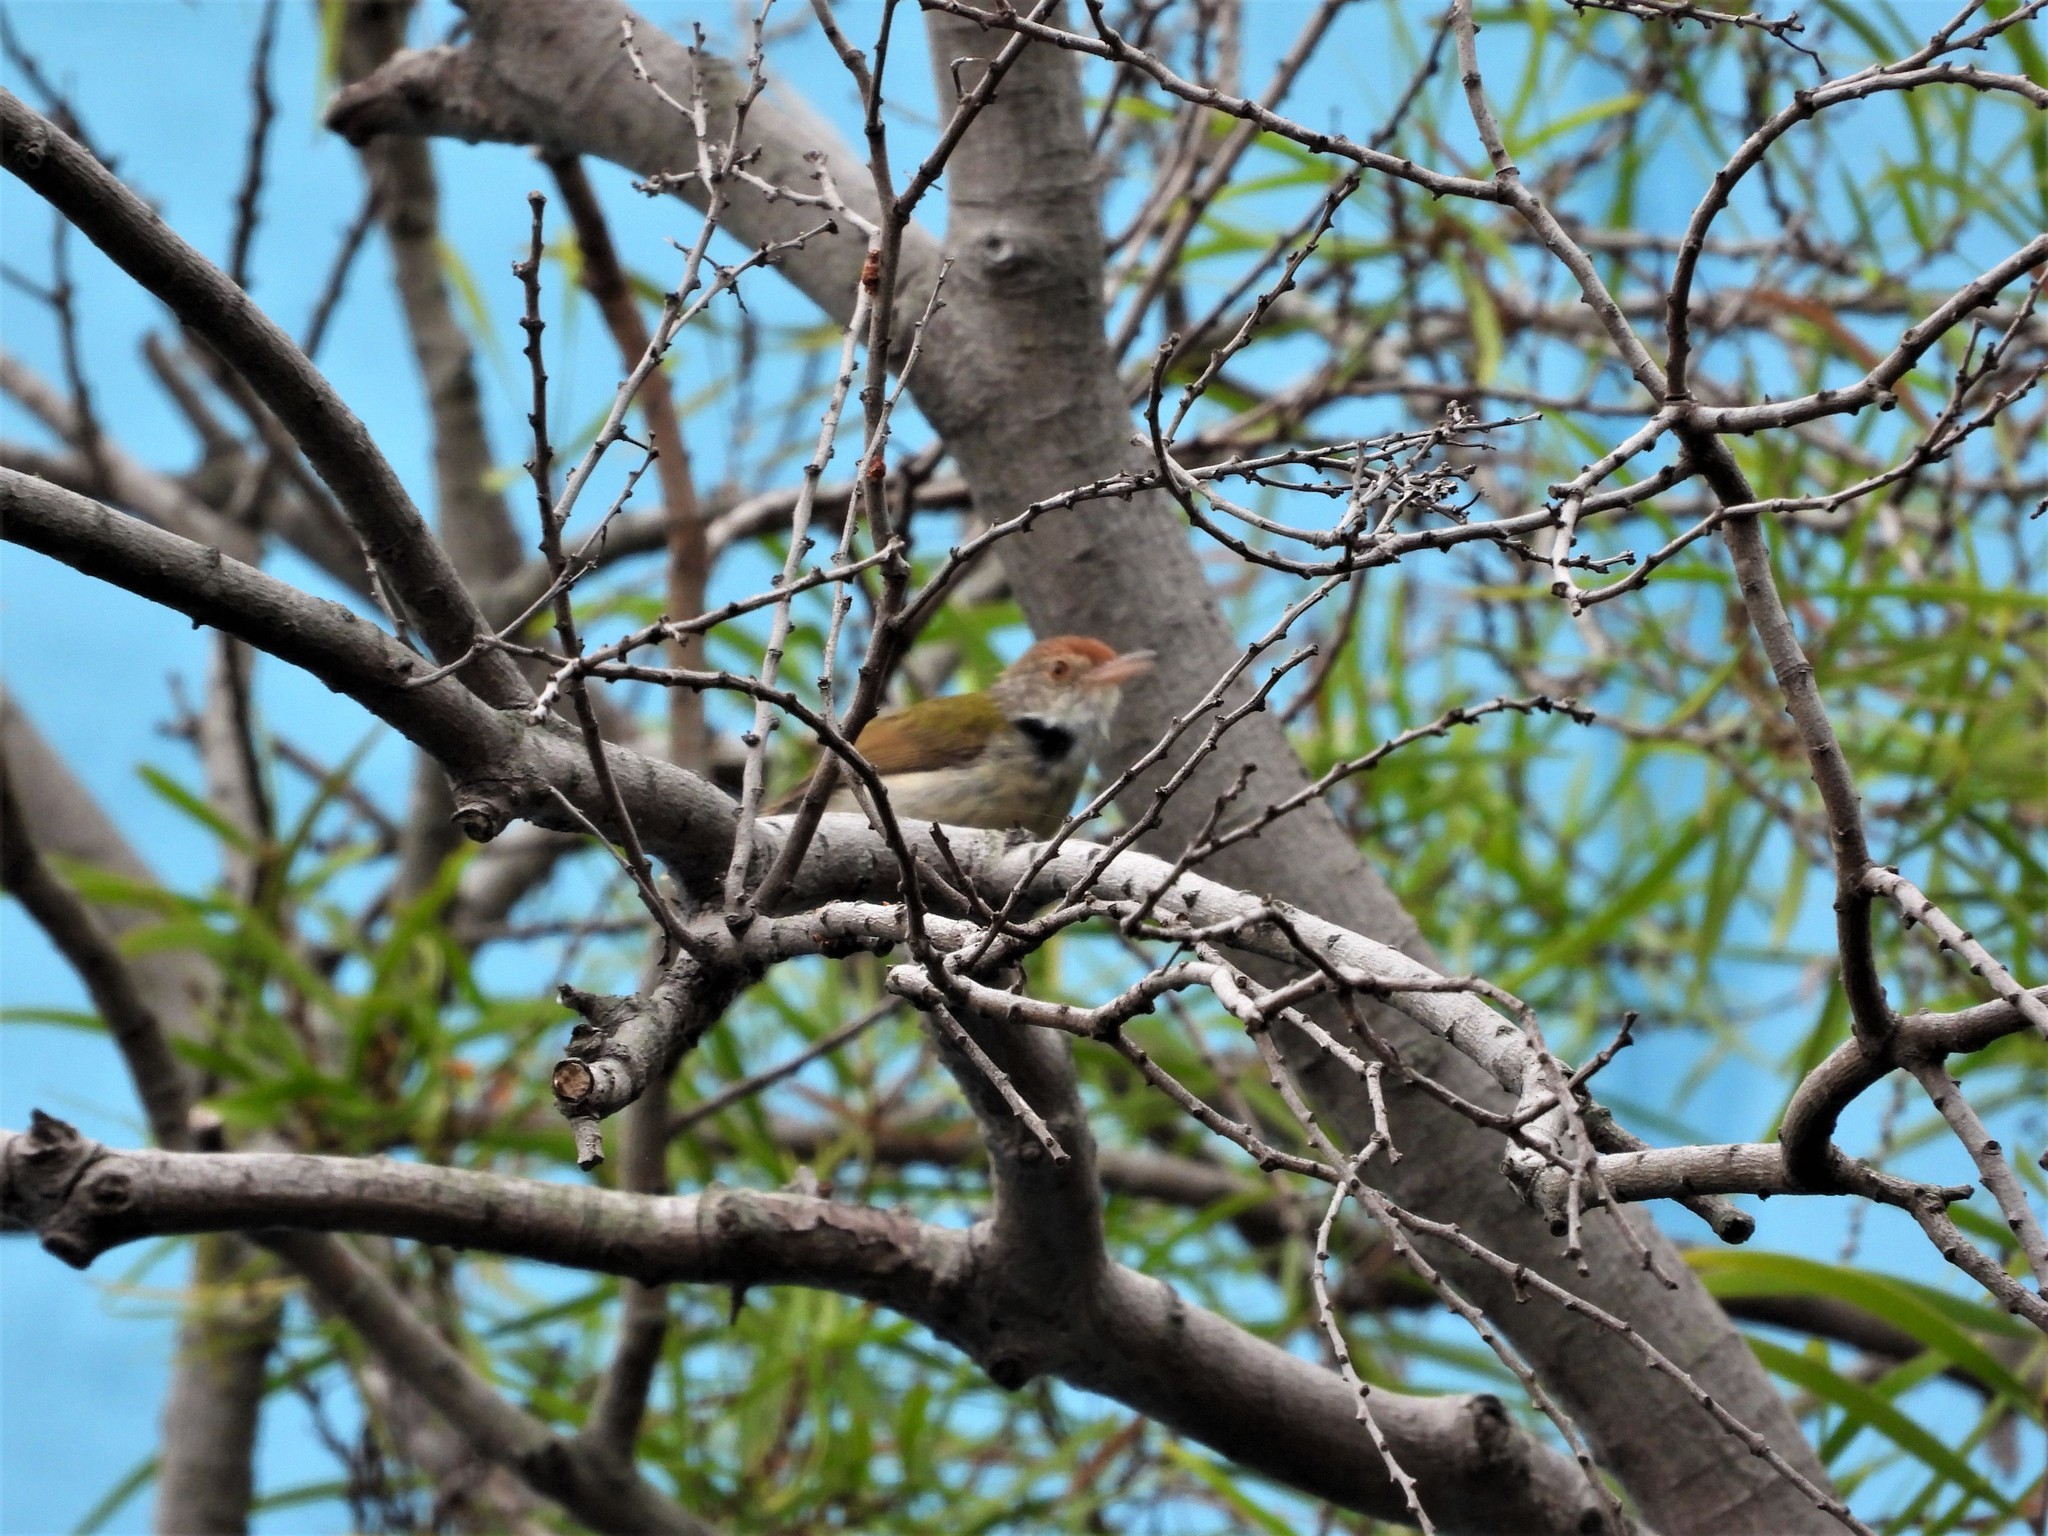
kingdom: Animalia
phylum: Chordata
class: Aves
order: Passeriformes
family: Cisticolidae
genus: Orthotomus
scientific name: Orthotomus sutorius
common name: Common tailorbird
